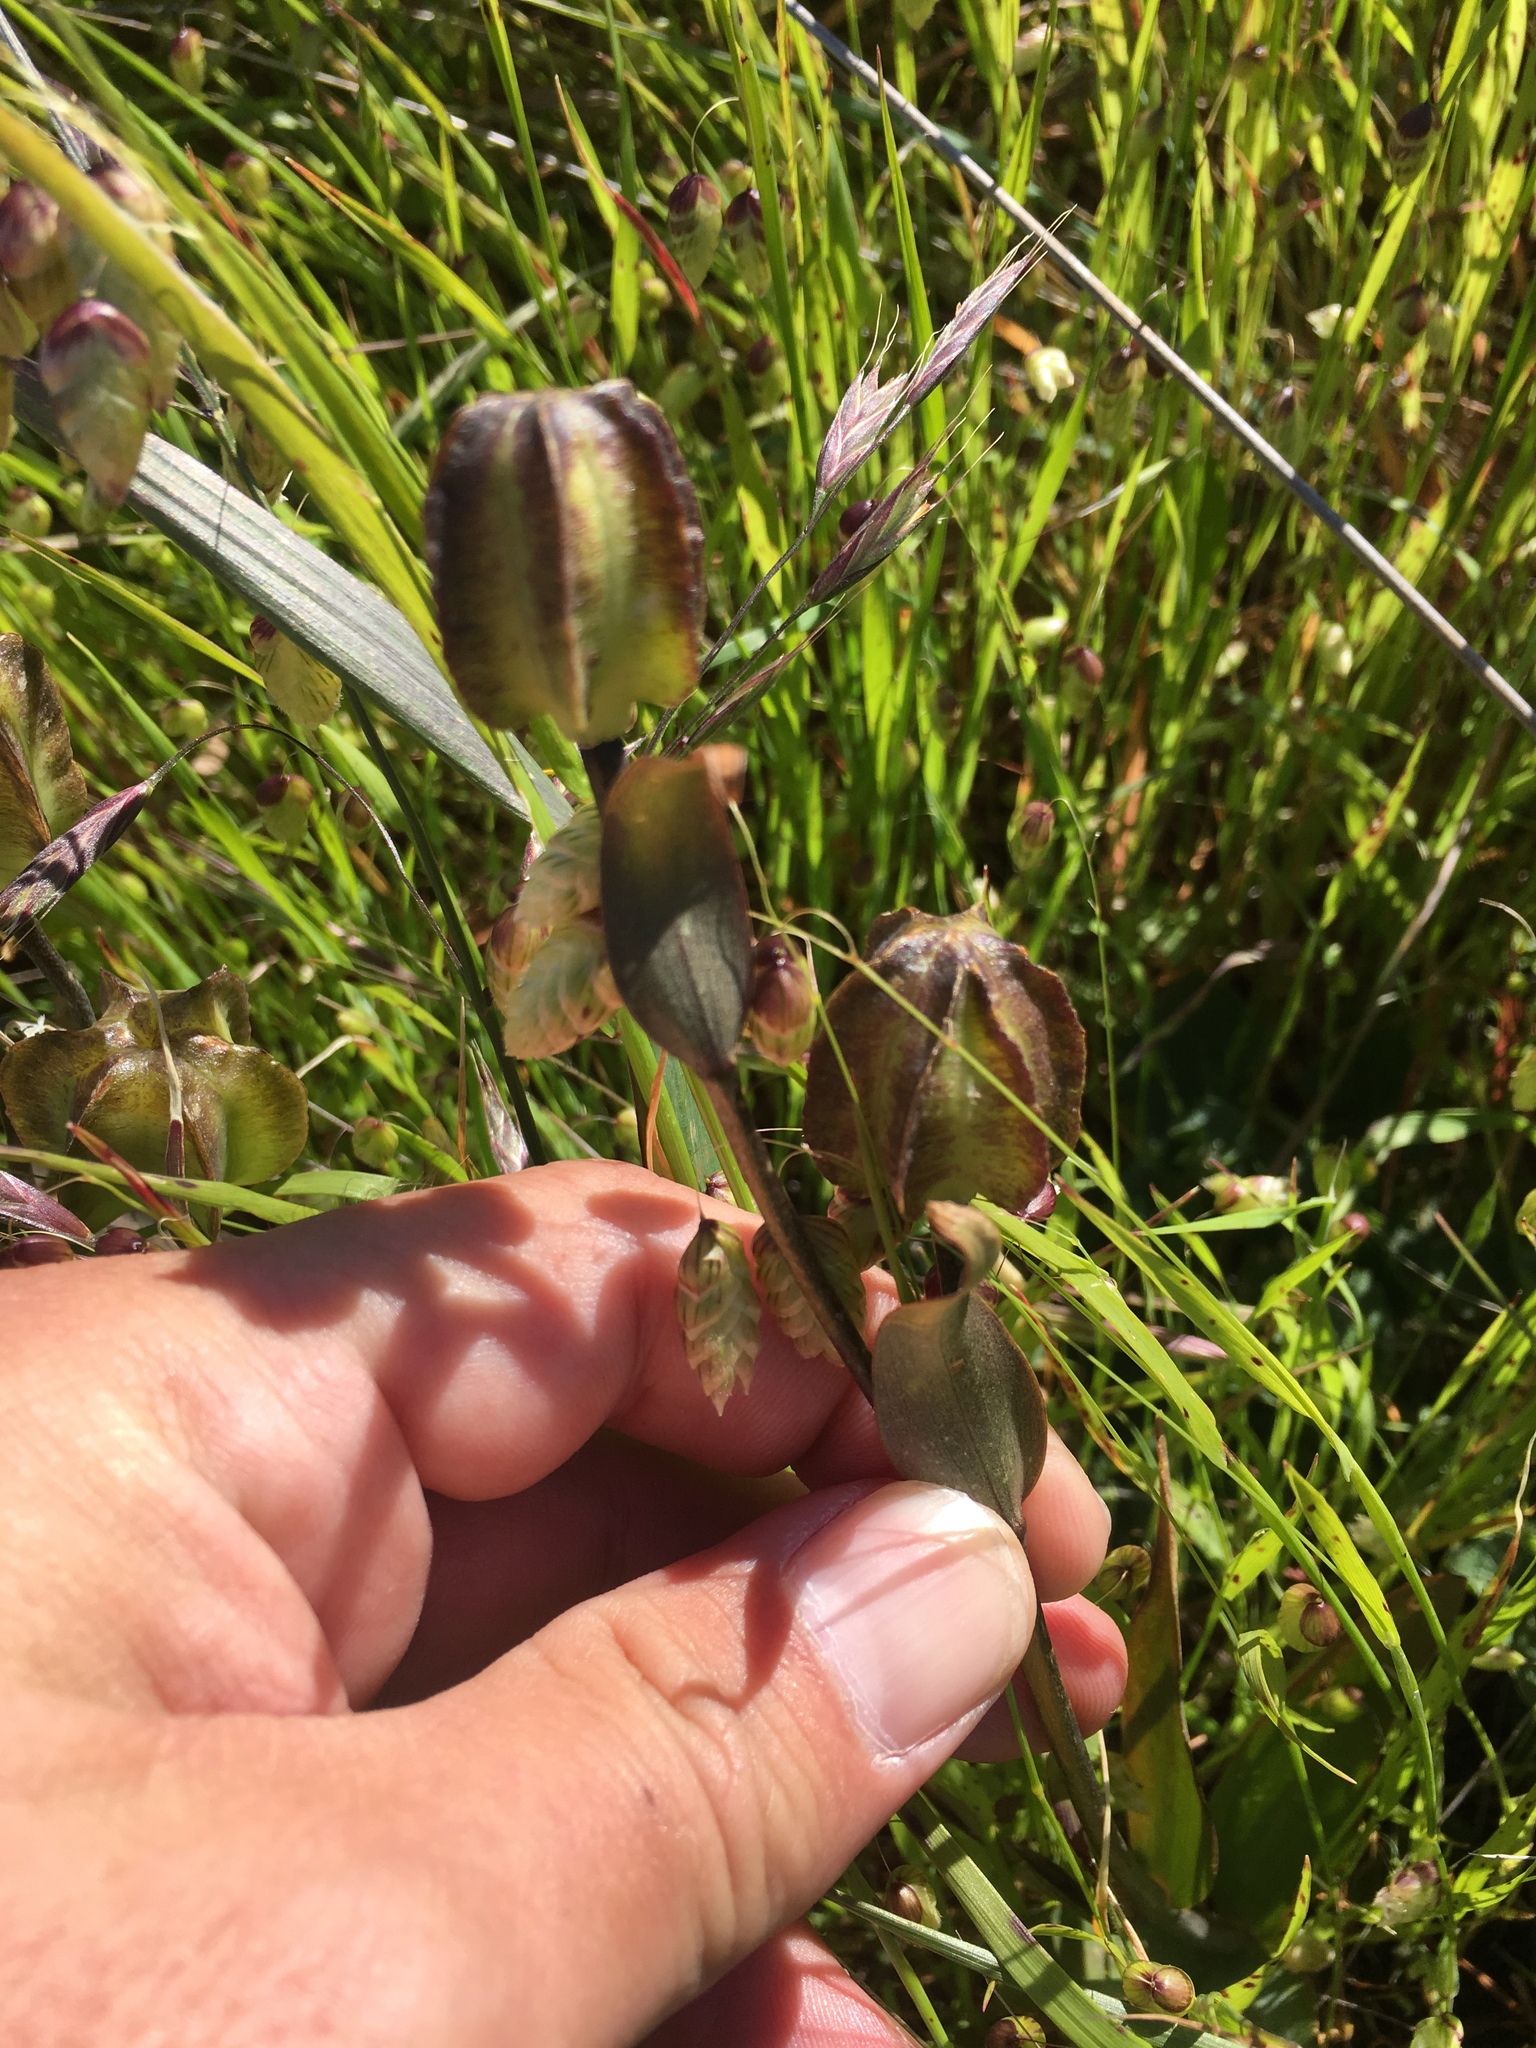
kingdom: Plantae
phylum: Tracheophyta
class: Liliopsida
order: Liliales
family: Liliaceae
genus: Fritillaria
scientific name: Fritillaria affinis
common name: Ojai fritillary
